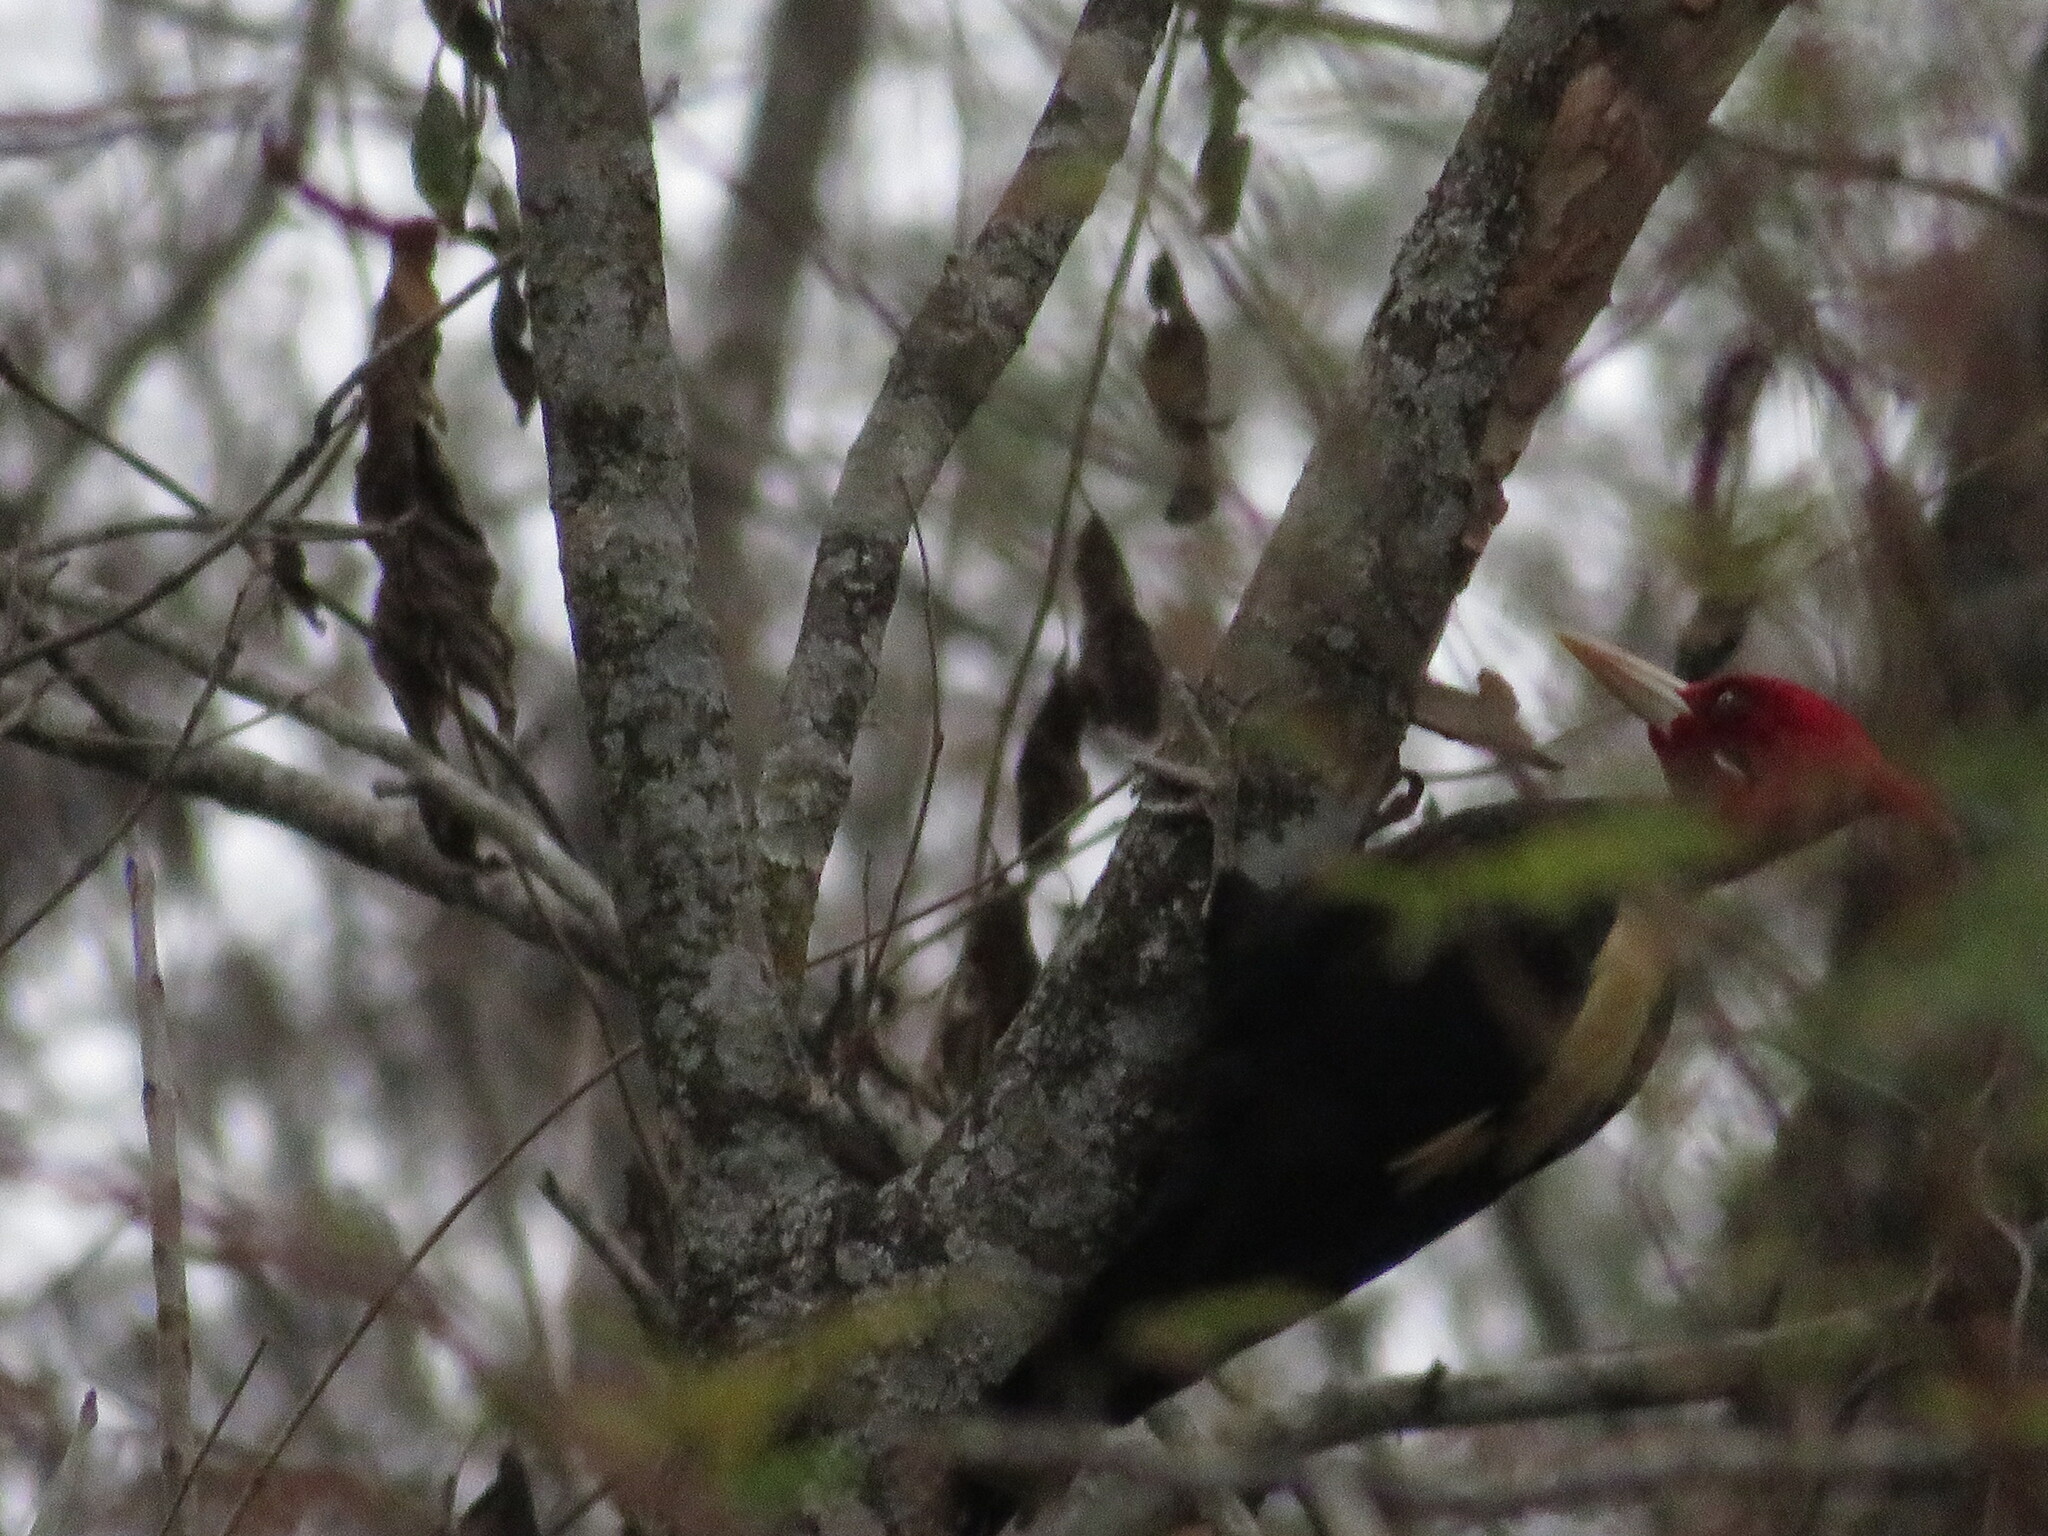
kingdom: Animalia
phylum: Chordata
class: Aves
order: Piciformes
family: Picidae
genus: Campephilus
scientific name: Campephilus leucopogon
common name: Cream-backed woodpecker
